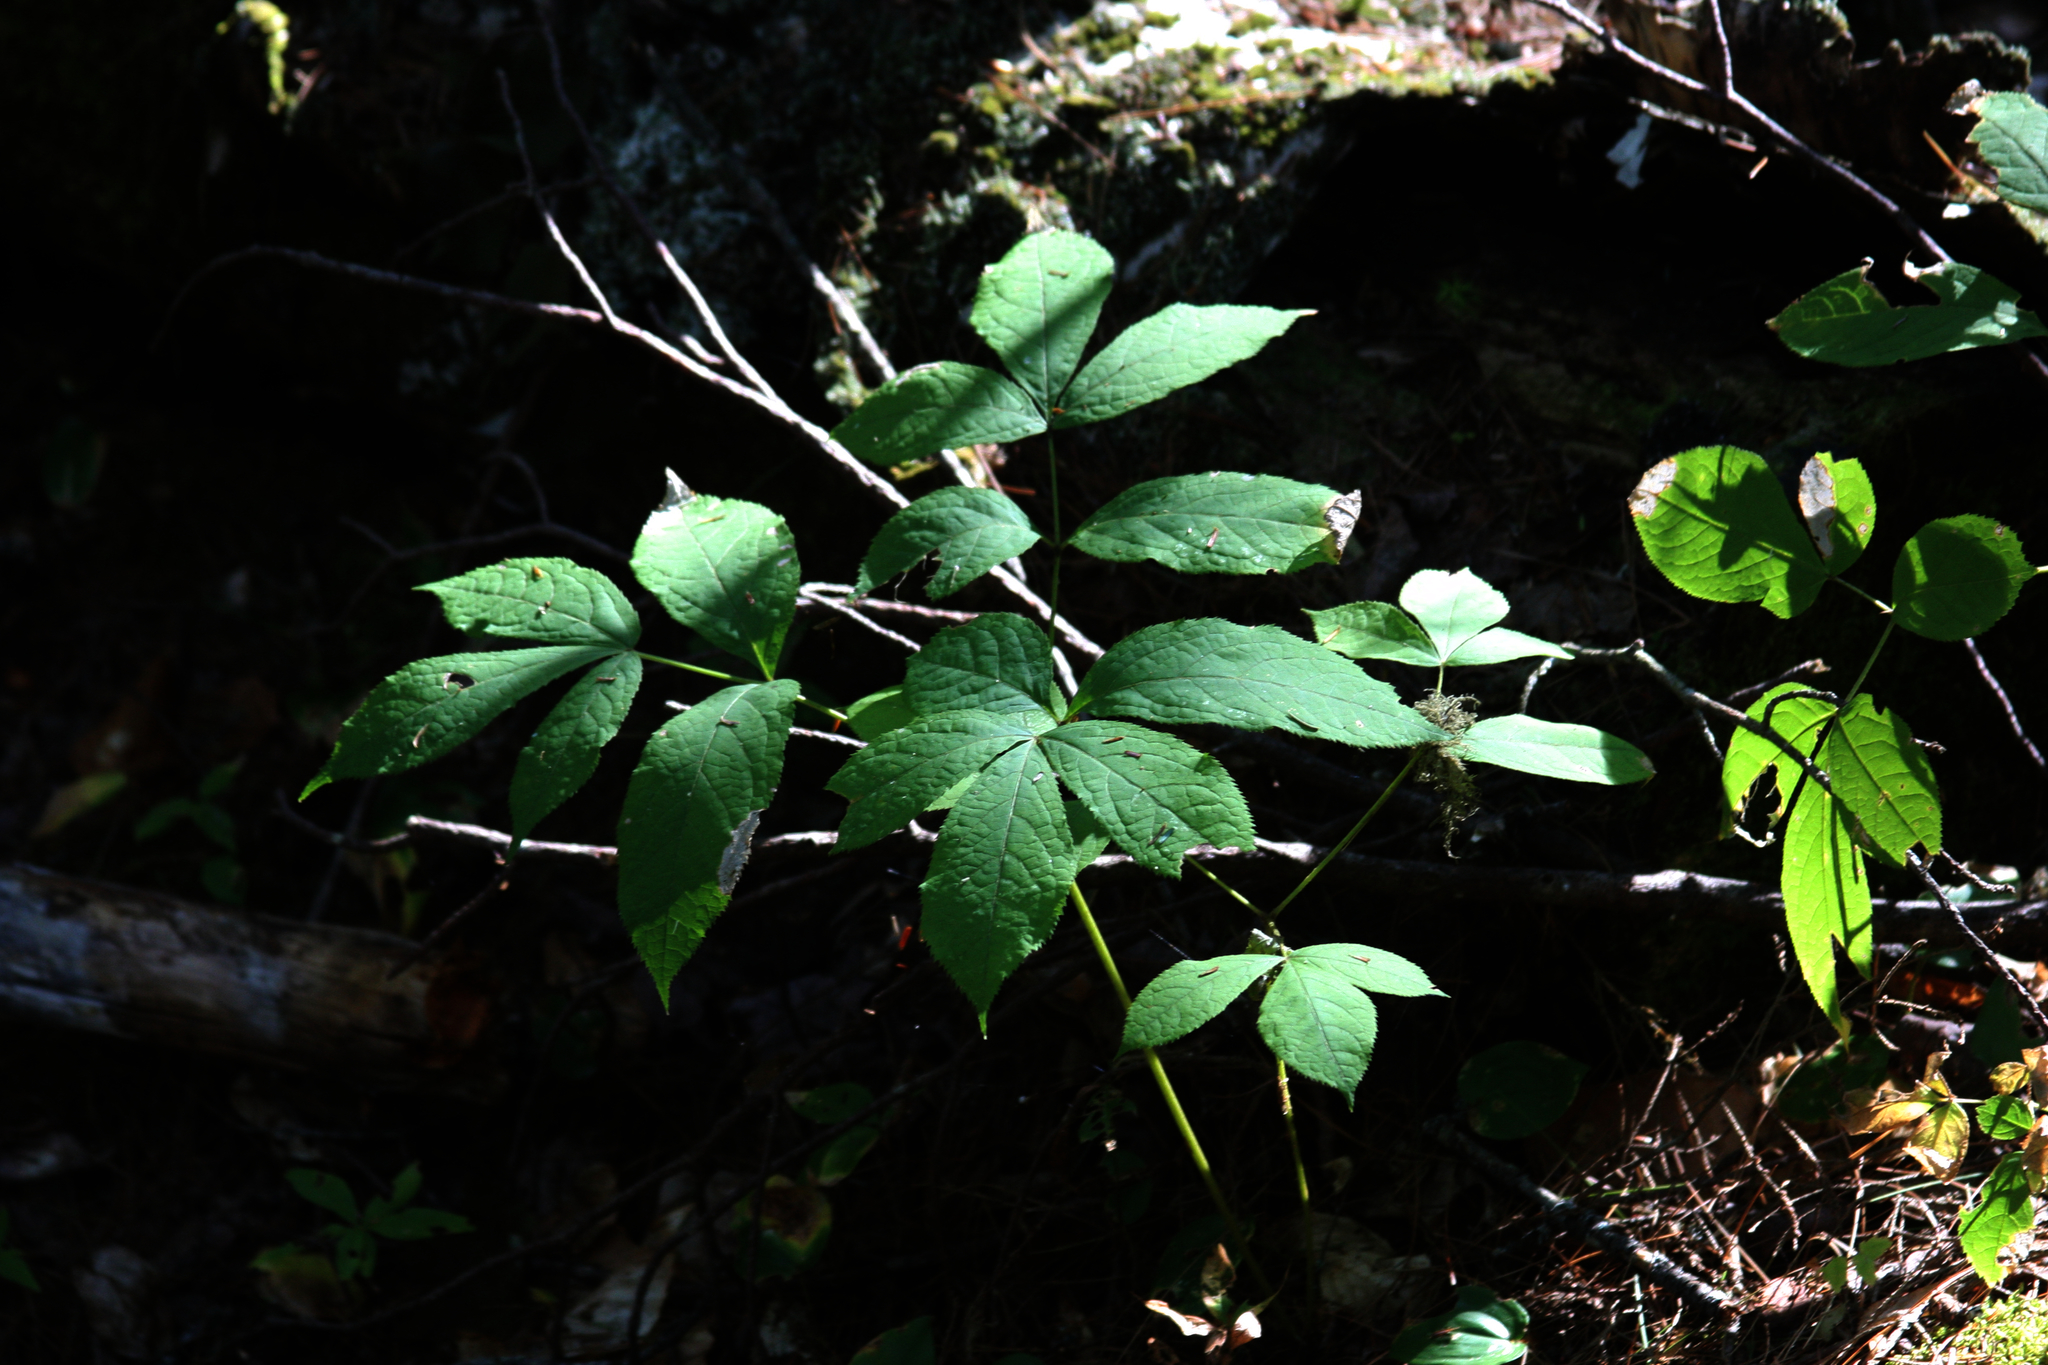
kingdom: Plantae
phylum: Tracheophyta
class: Magnoliopsida
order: Apiales
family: Araliaceae
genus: Aralia
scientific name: Aralia nudicaulis
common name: Wild sarsaparilla
